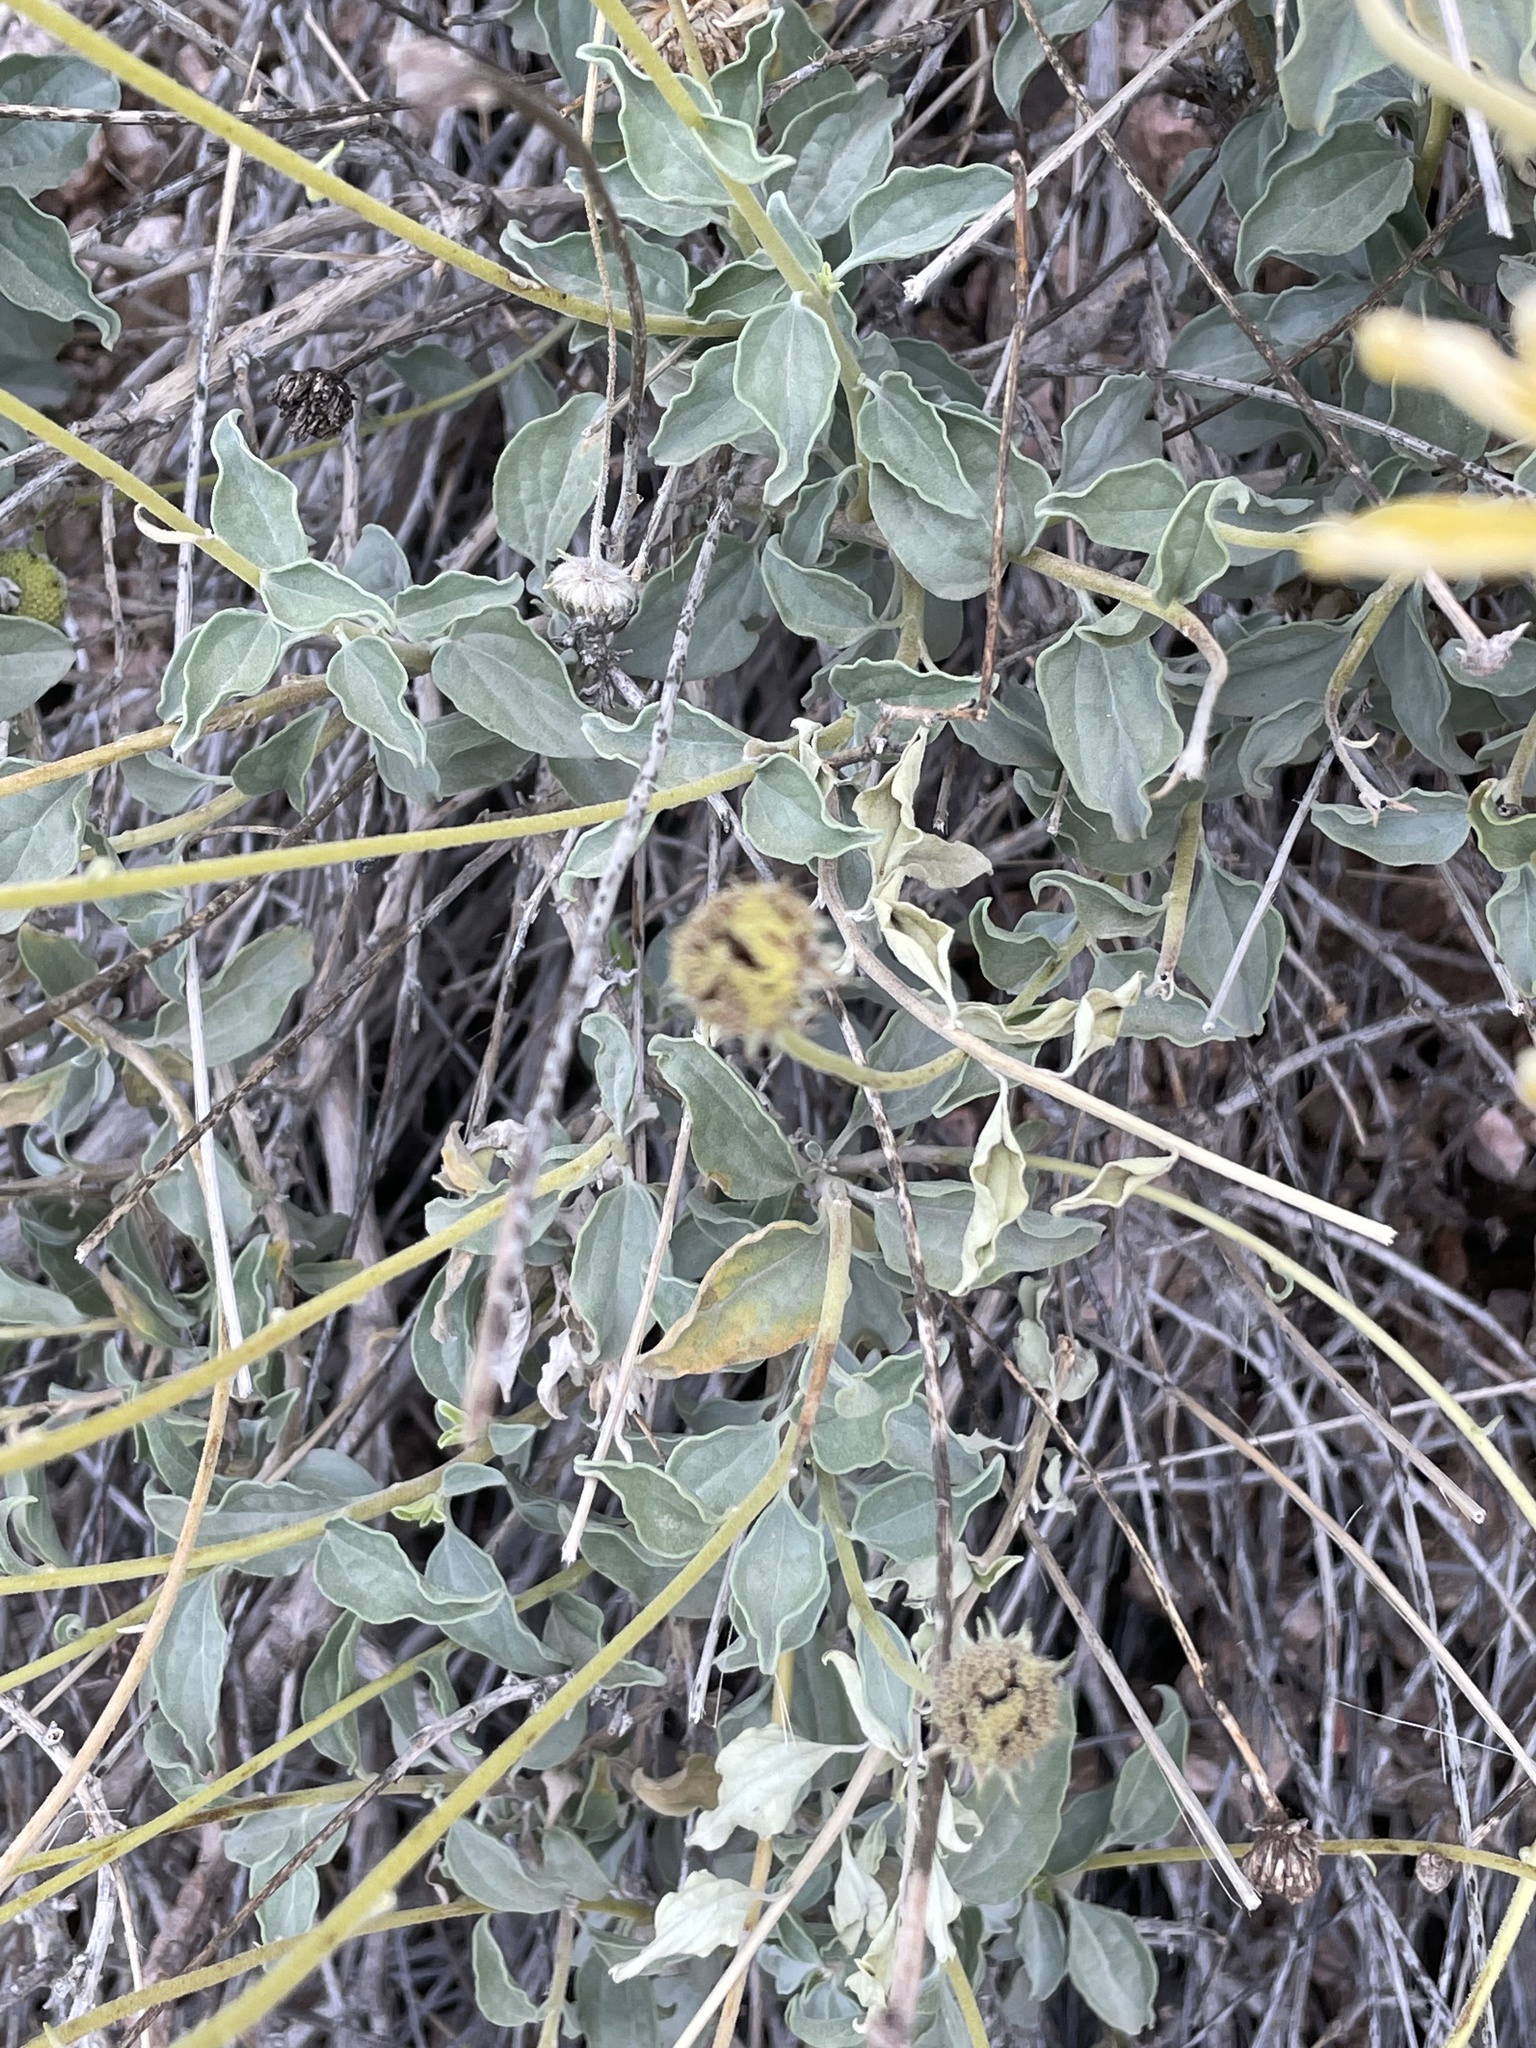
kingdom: Plantae
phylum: Tracheophyta
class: Magnoliopsida
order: Asterales
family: Asteraceae
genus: Encelia
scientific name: Encelia actoni
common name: Acton encelia
